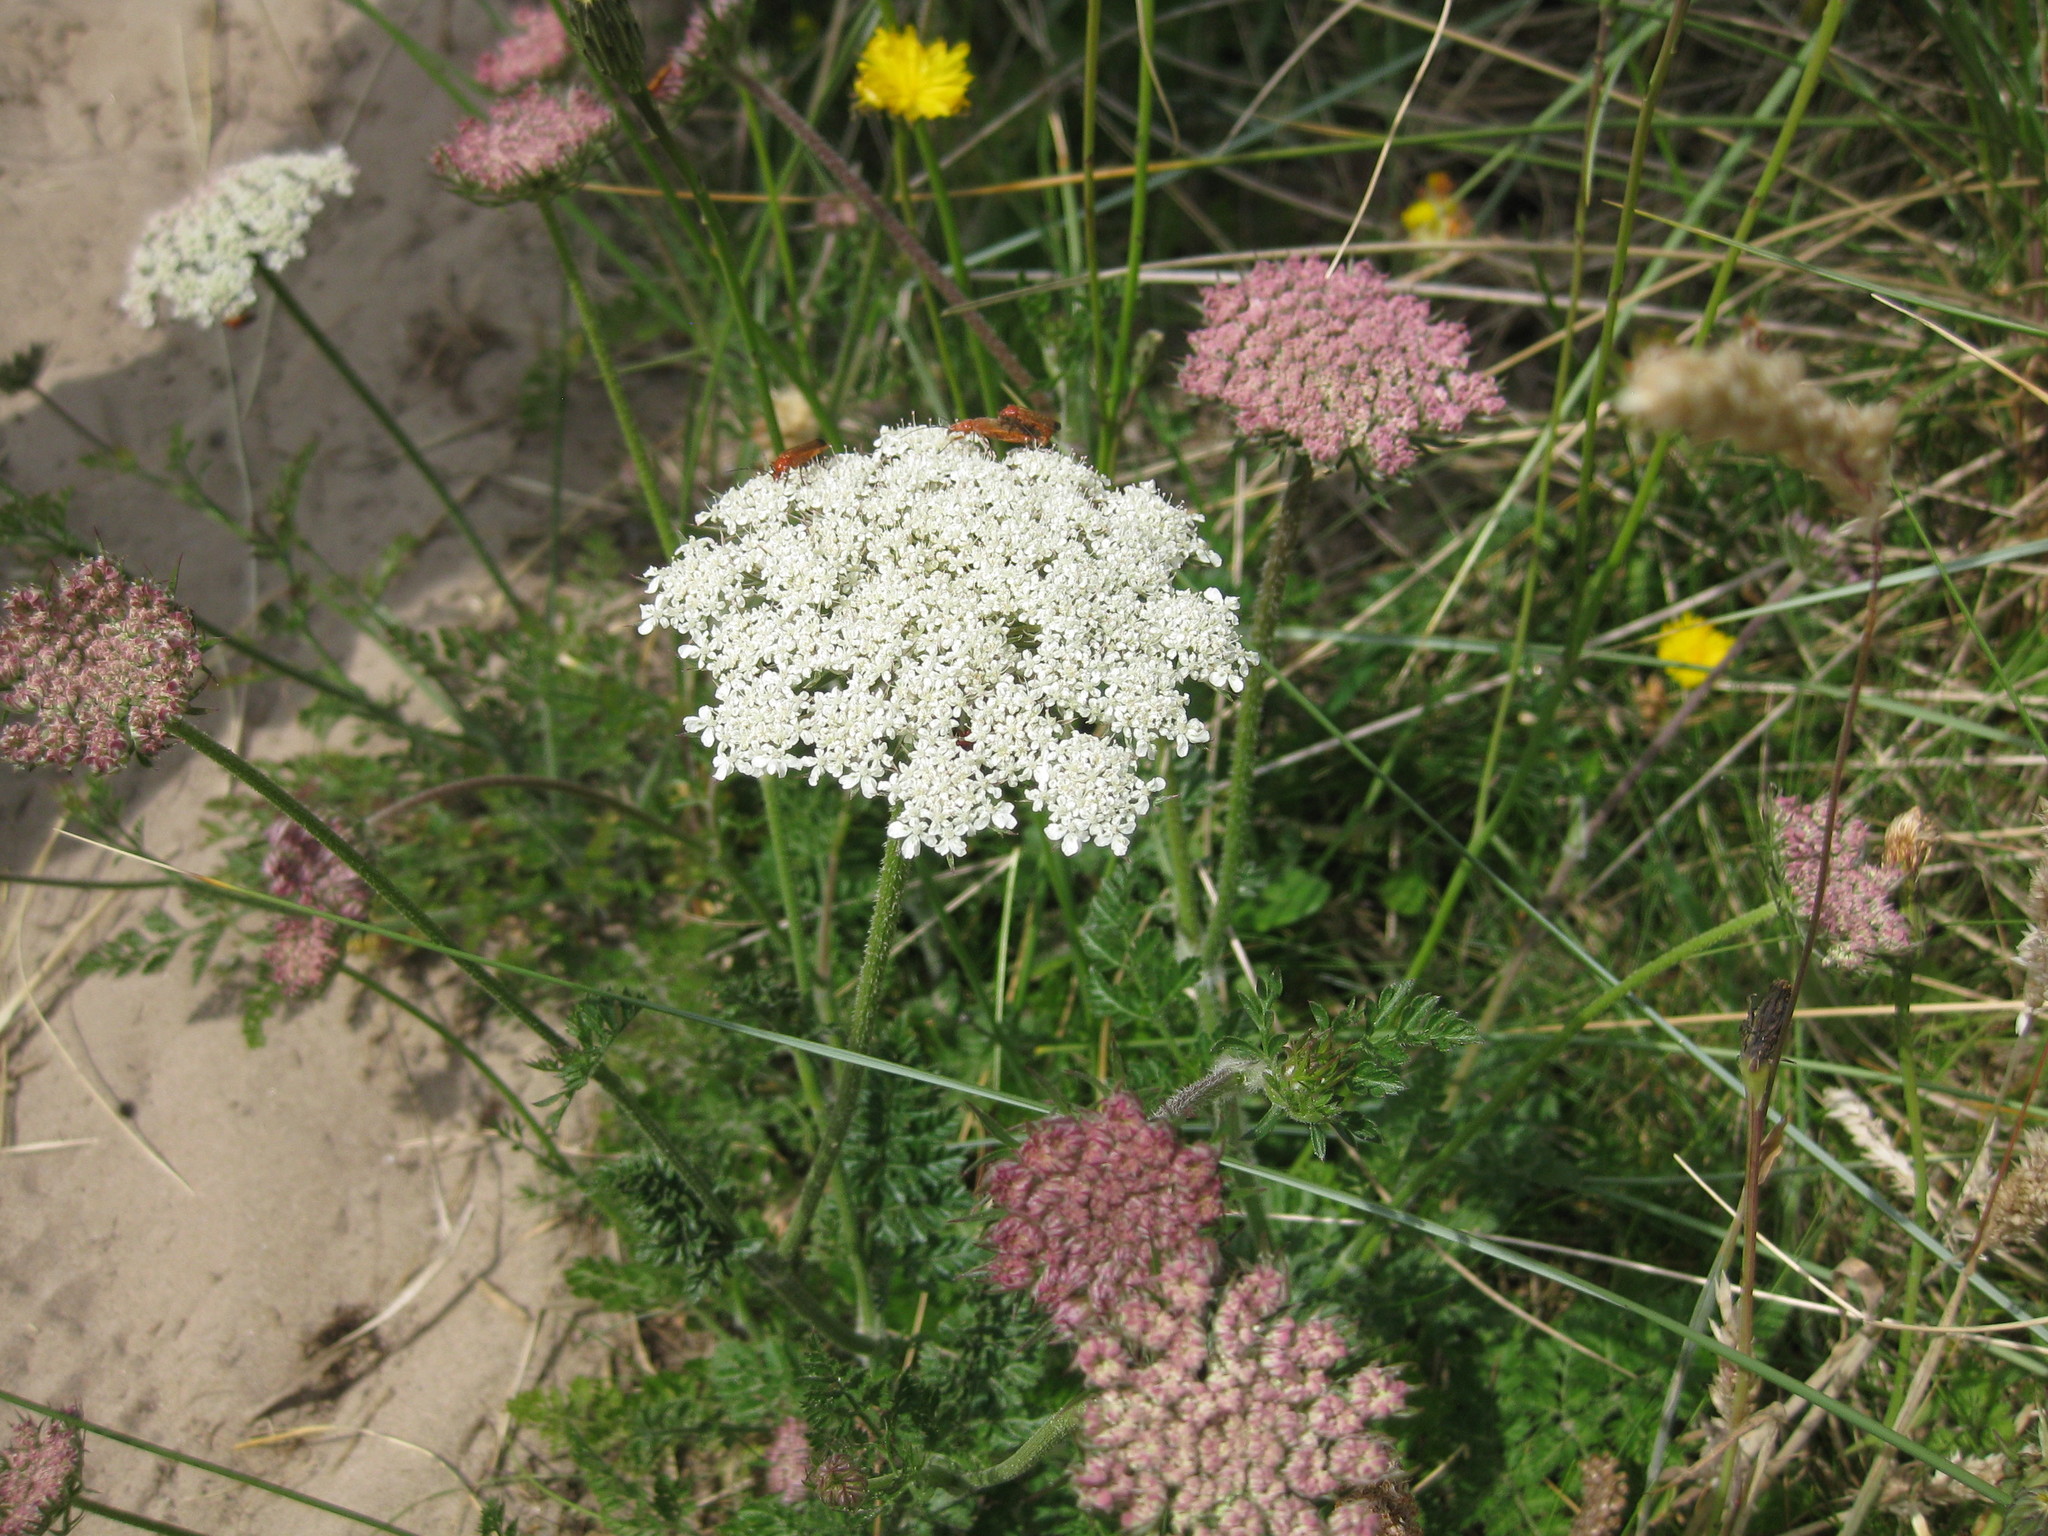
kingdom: Plantae
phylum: Tracheophyta
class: Magnoliopsida
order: Apiales
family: Apiaceae
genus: Daucus
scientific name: Daucus carota
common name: Wild carrot
